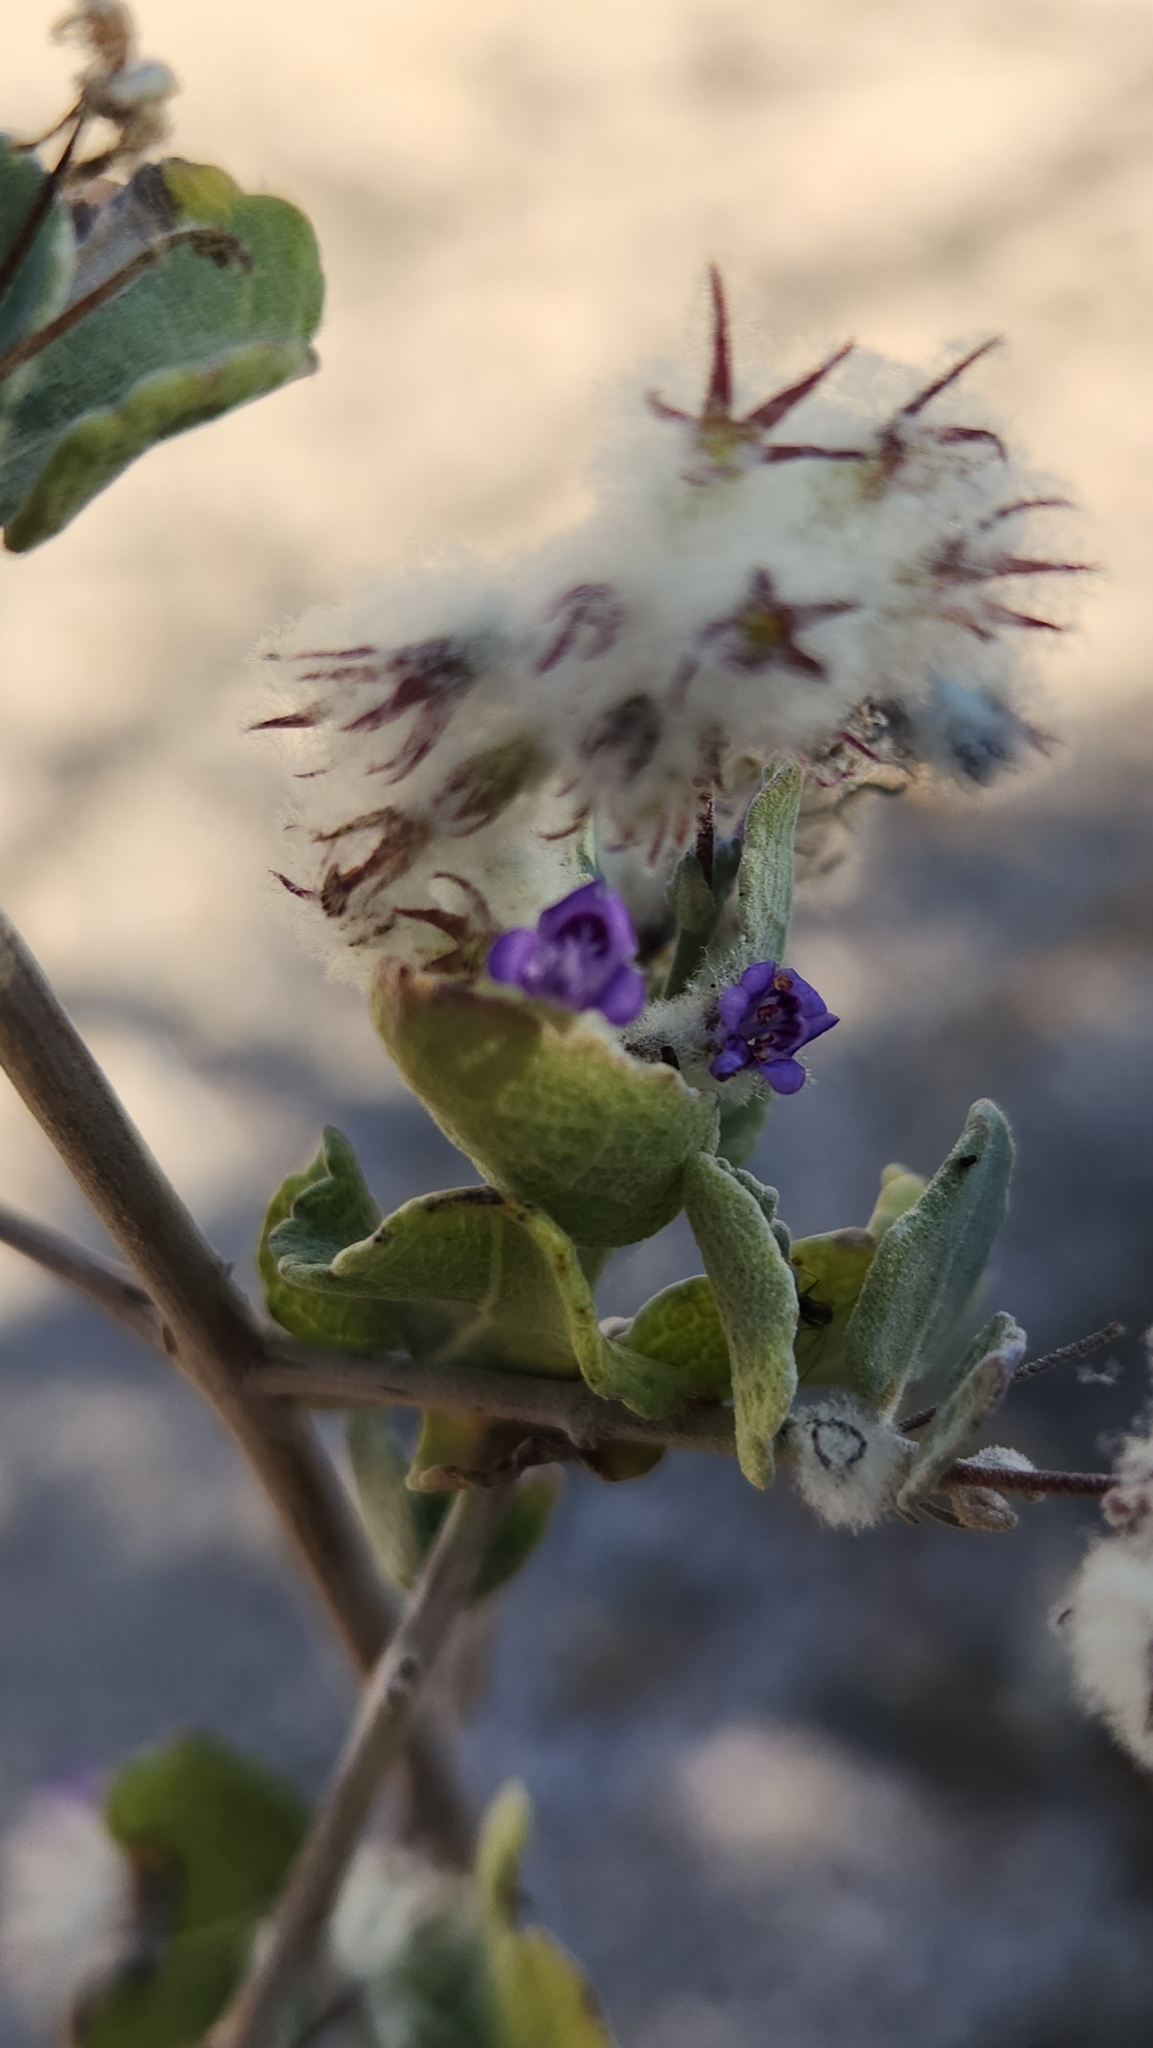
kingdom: Plantae
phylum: Tracheophyta
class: Magnoliopsida
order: Lamiales
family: Lamiaceae
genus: Condea
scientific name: Condea laniflora
